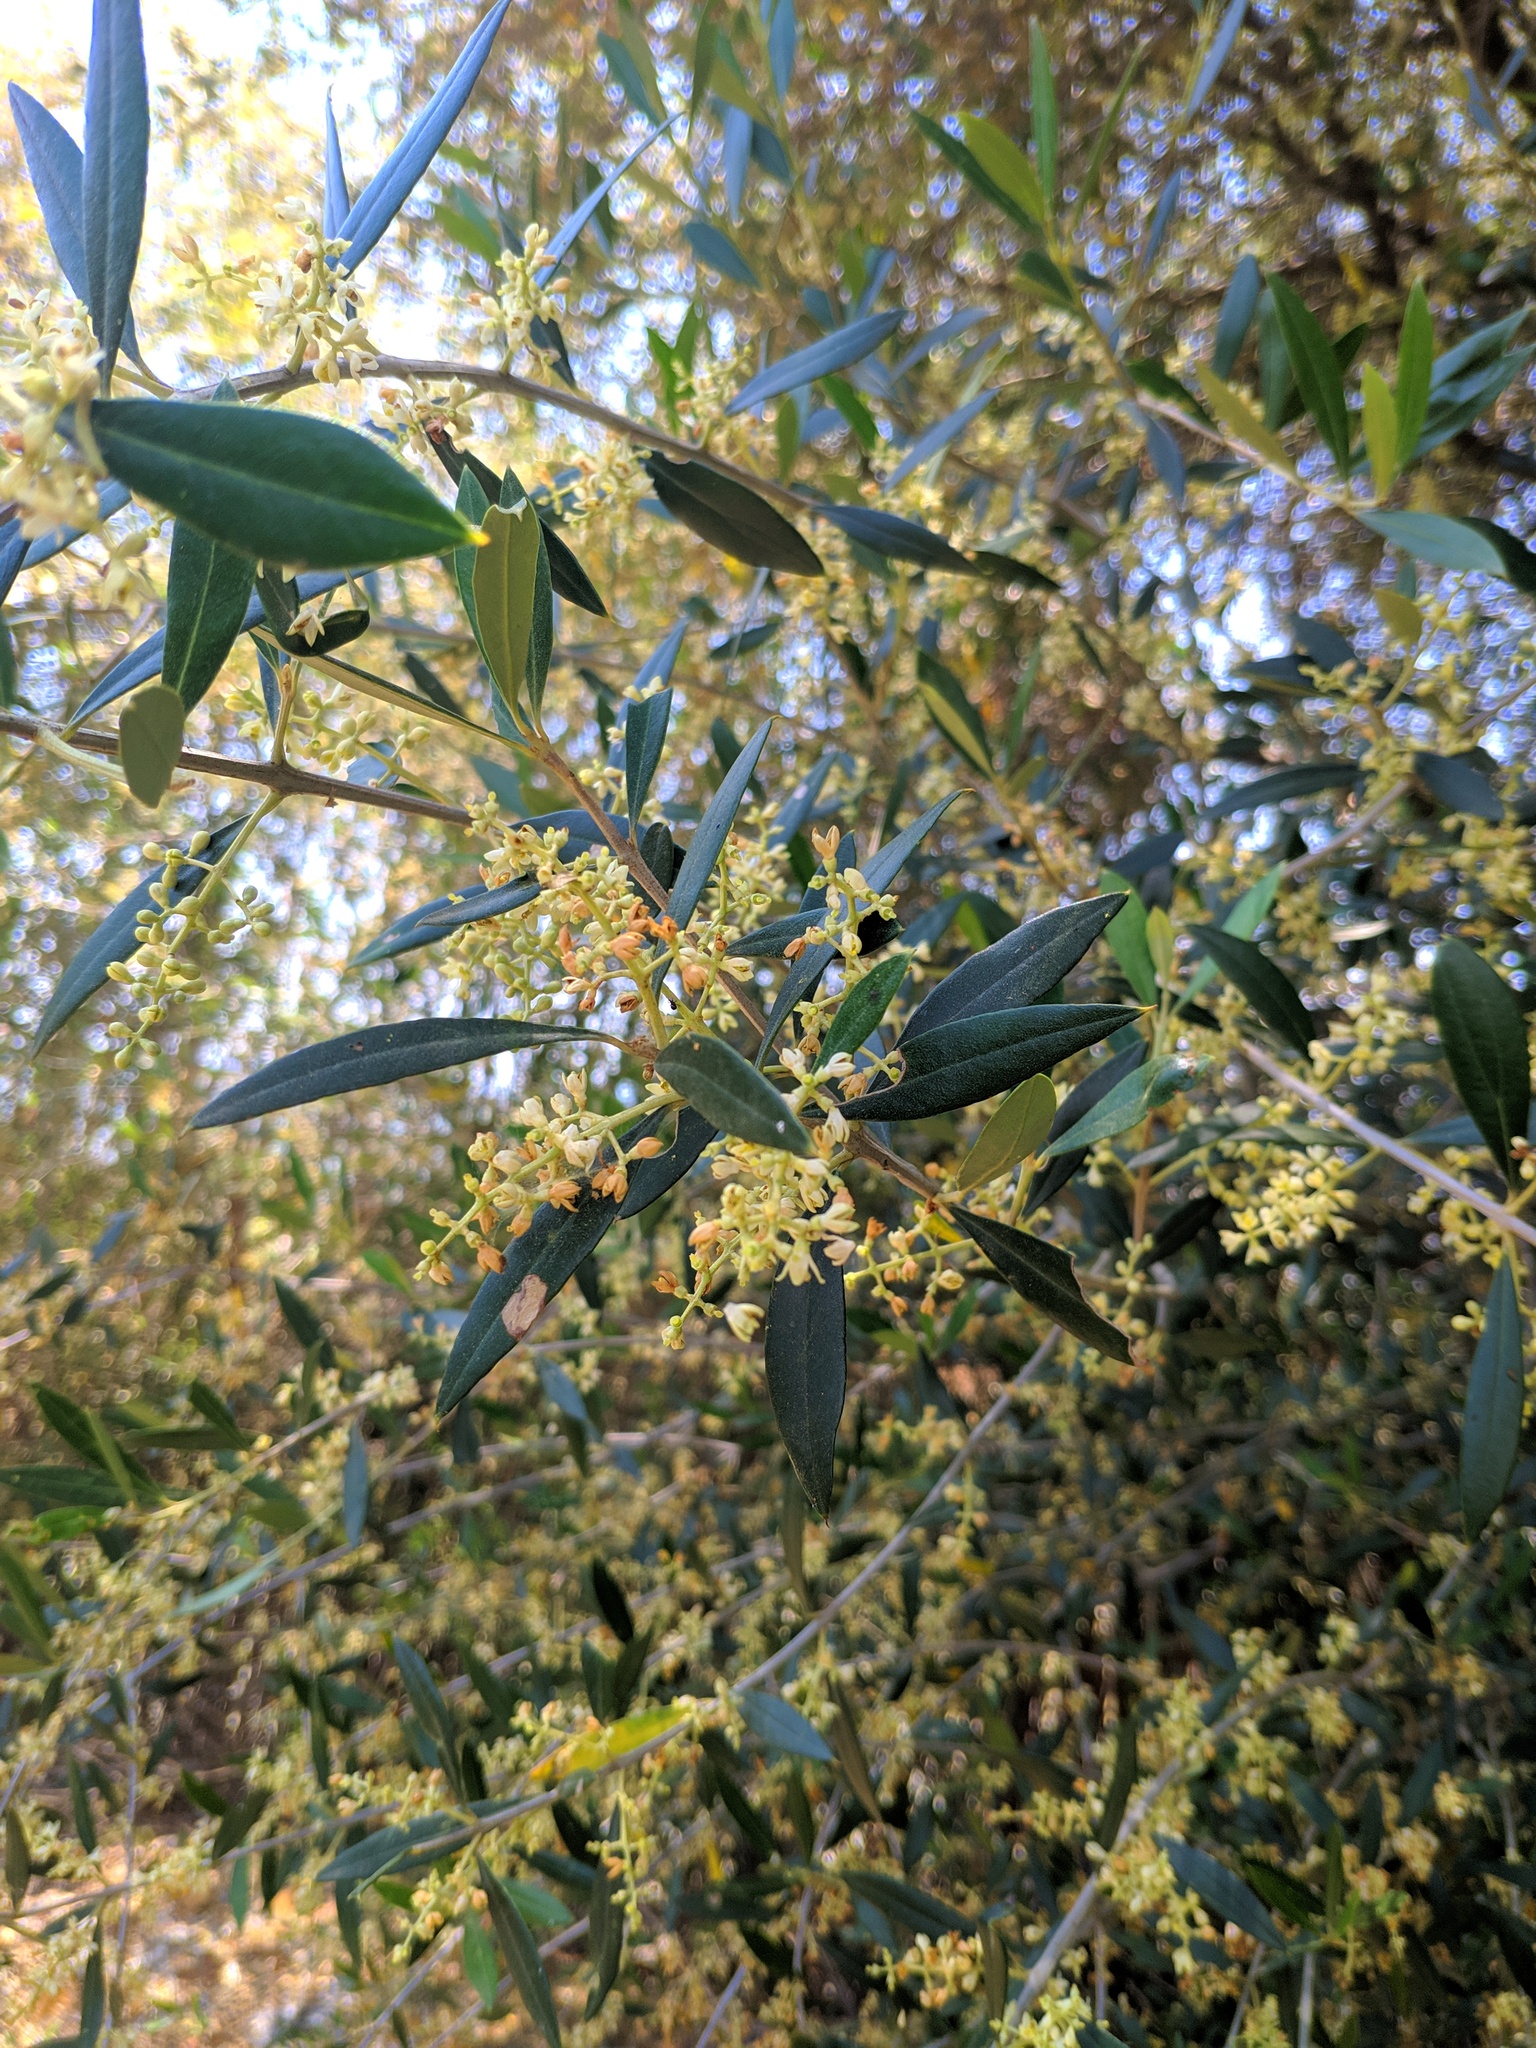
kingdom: Plantae
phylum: Tracheophyta
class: Magnoliopsida
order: Lamiales
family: Oleaceae
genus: Olea
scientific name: Olea europaea
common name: Olive
